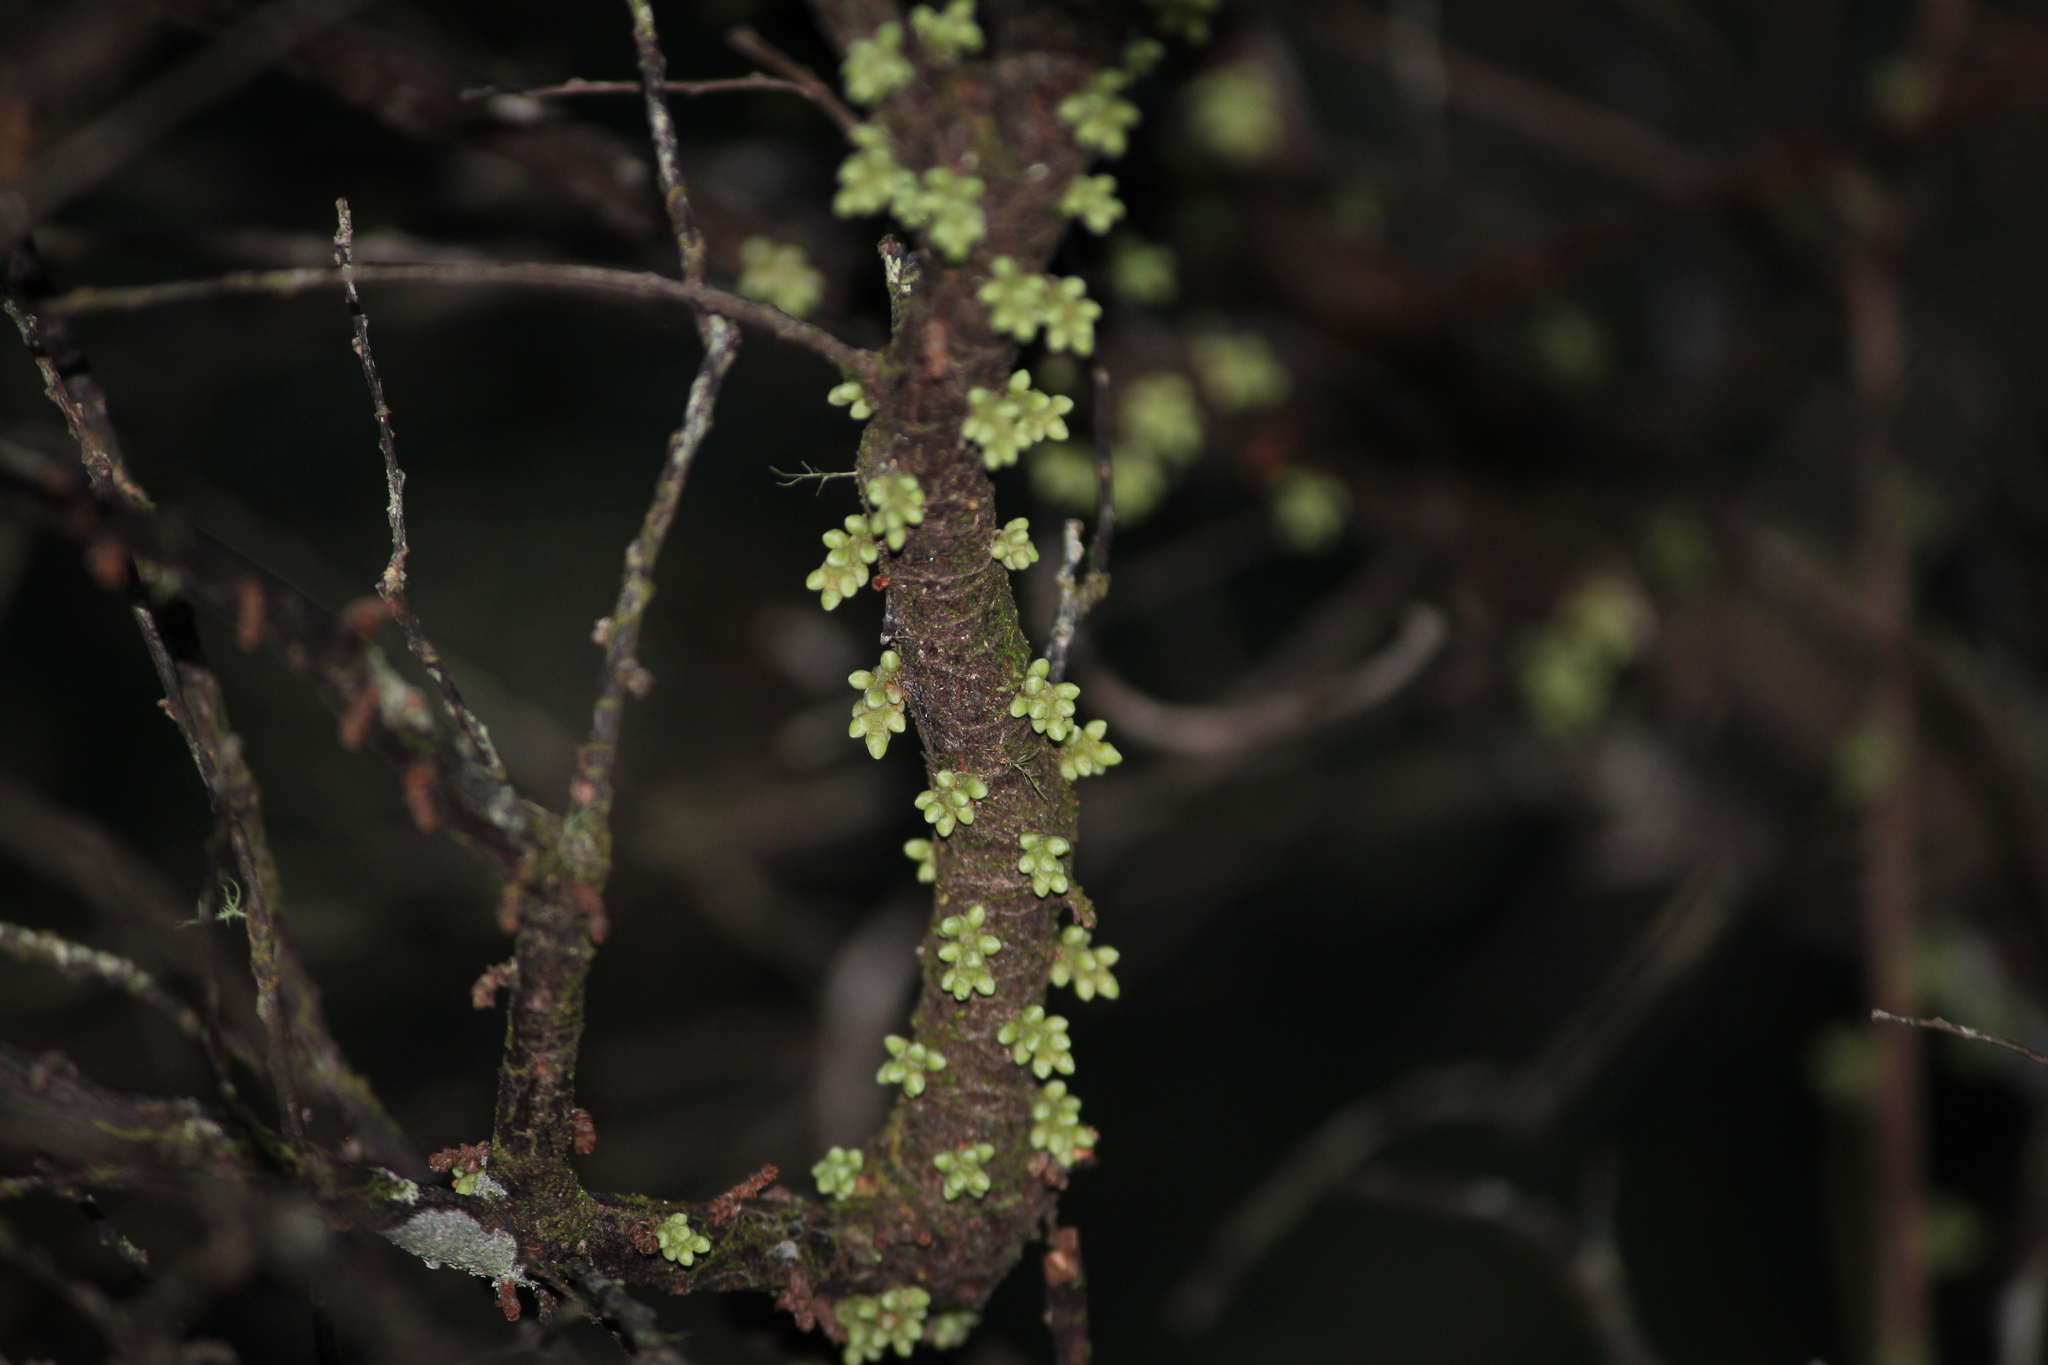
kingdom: Plantae
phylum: Tracheophyta
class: Magnoliopsida
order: Ericales
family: Ericaceae
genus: Acrotriche
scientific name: Acrotriche aggregata
